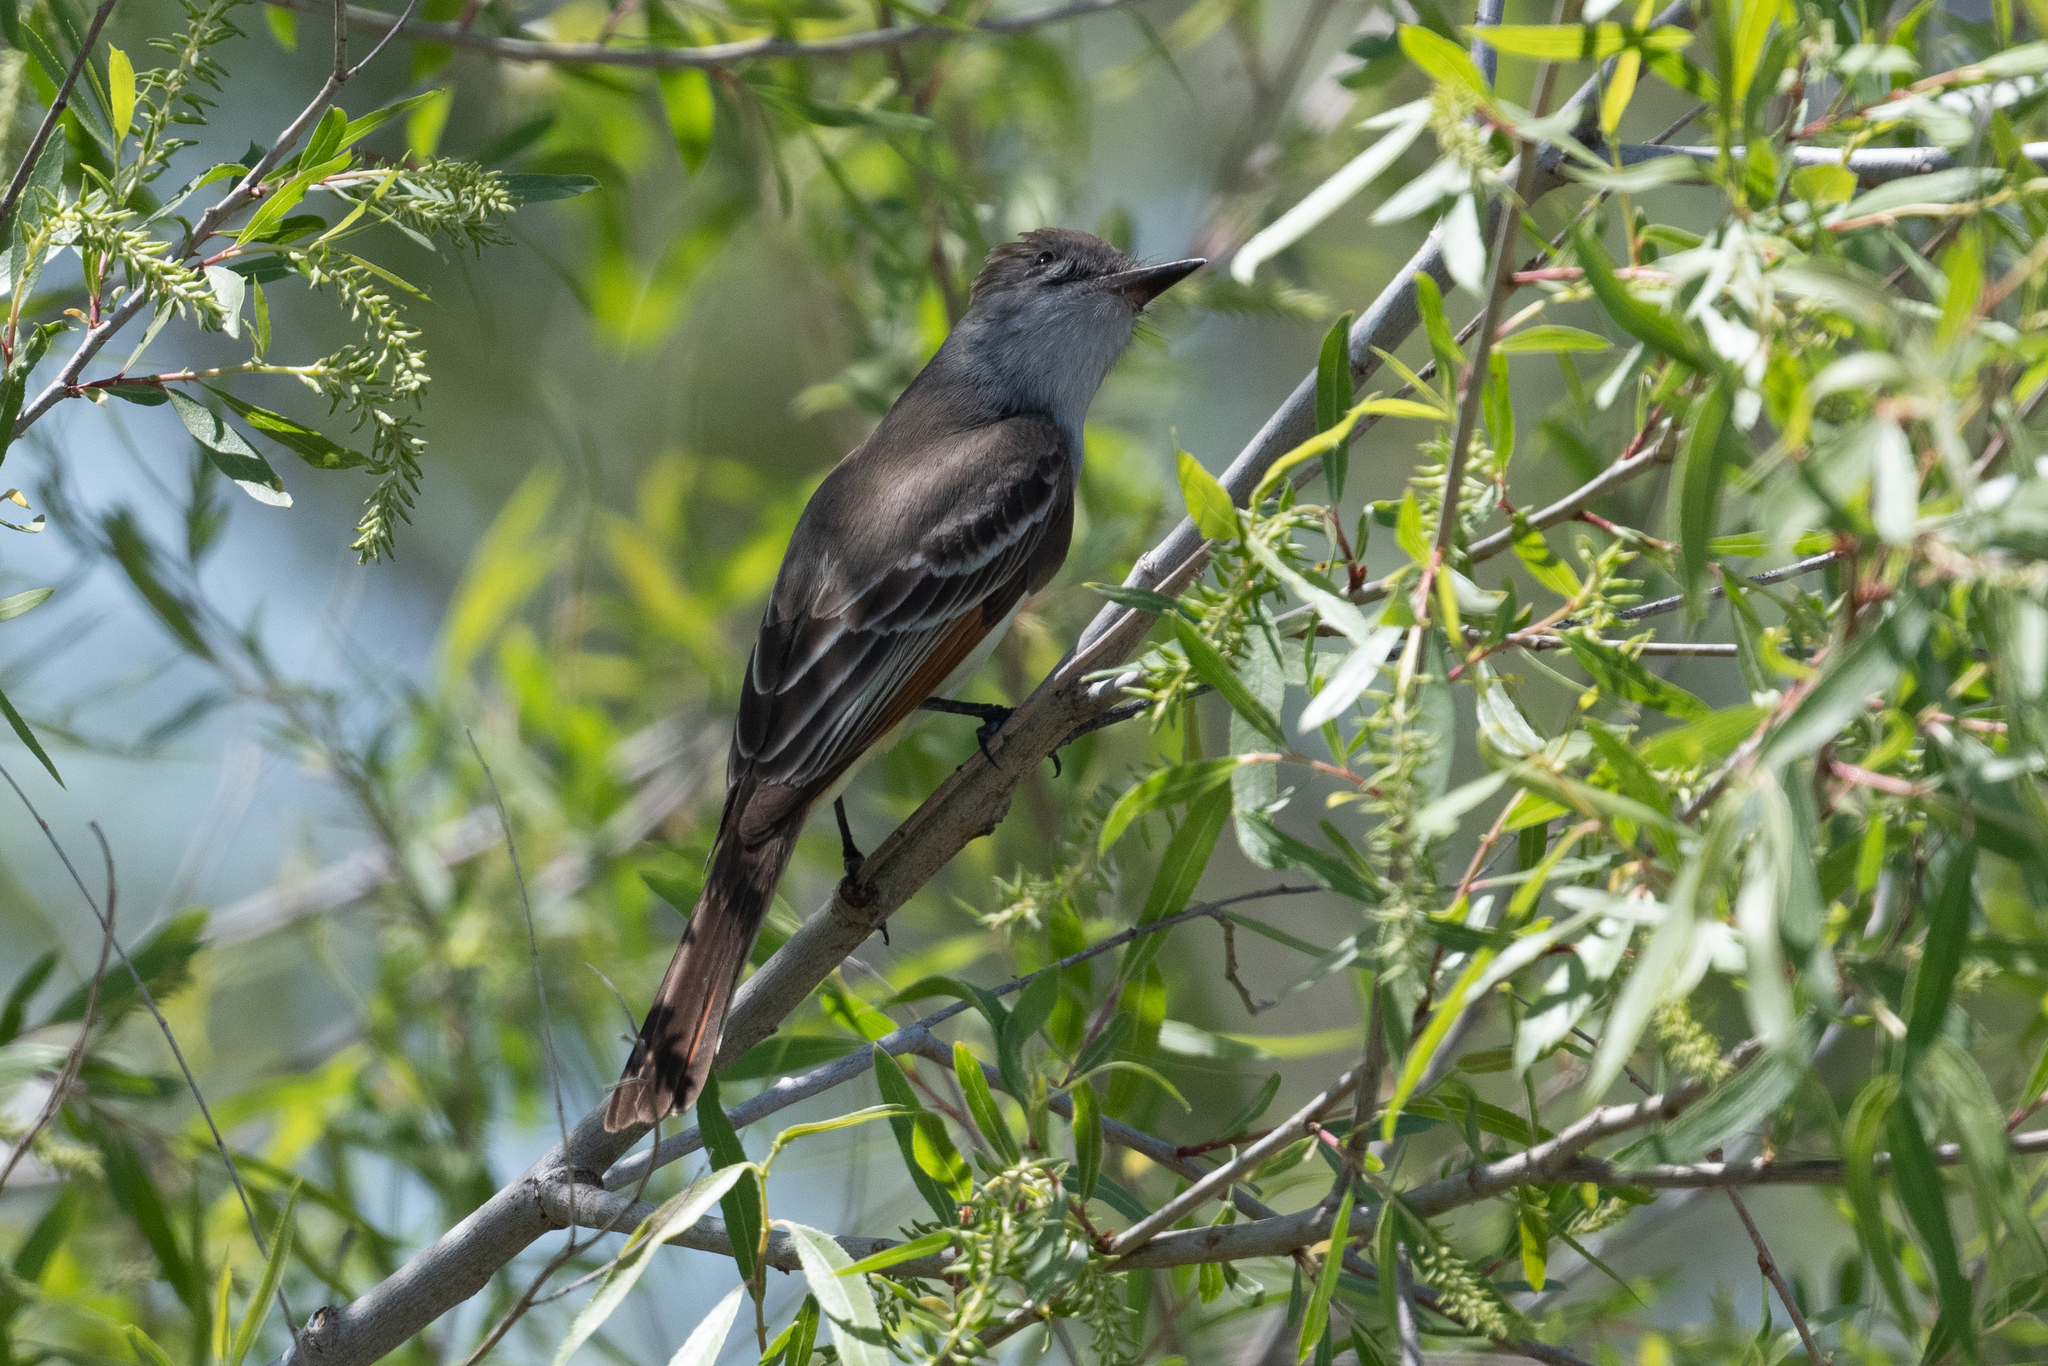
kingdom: Animalia
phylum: Chordata
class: Aves
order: Passeriformes
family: Tyrannidae
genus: Myiarchus
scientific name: Myiarchus cinerascens
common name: Ash-throated flycatcher
